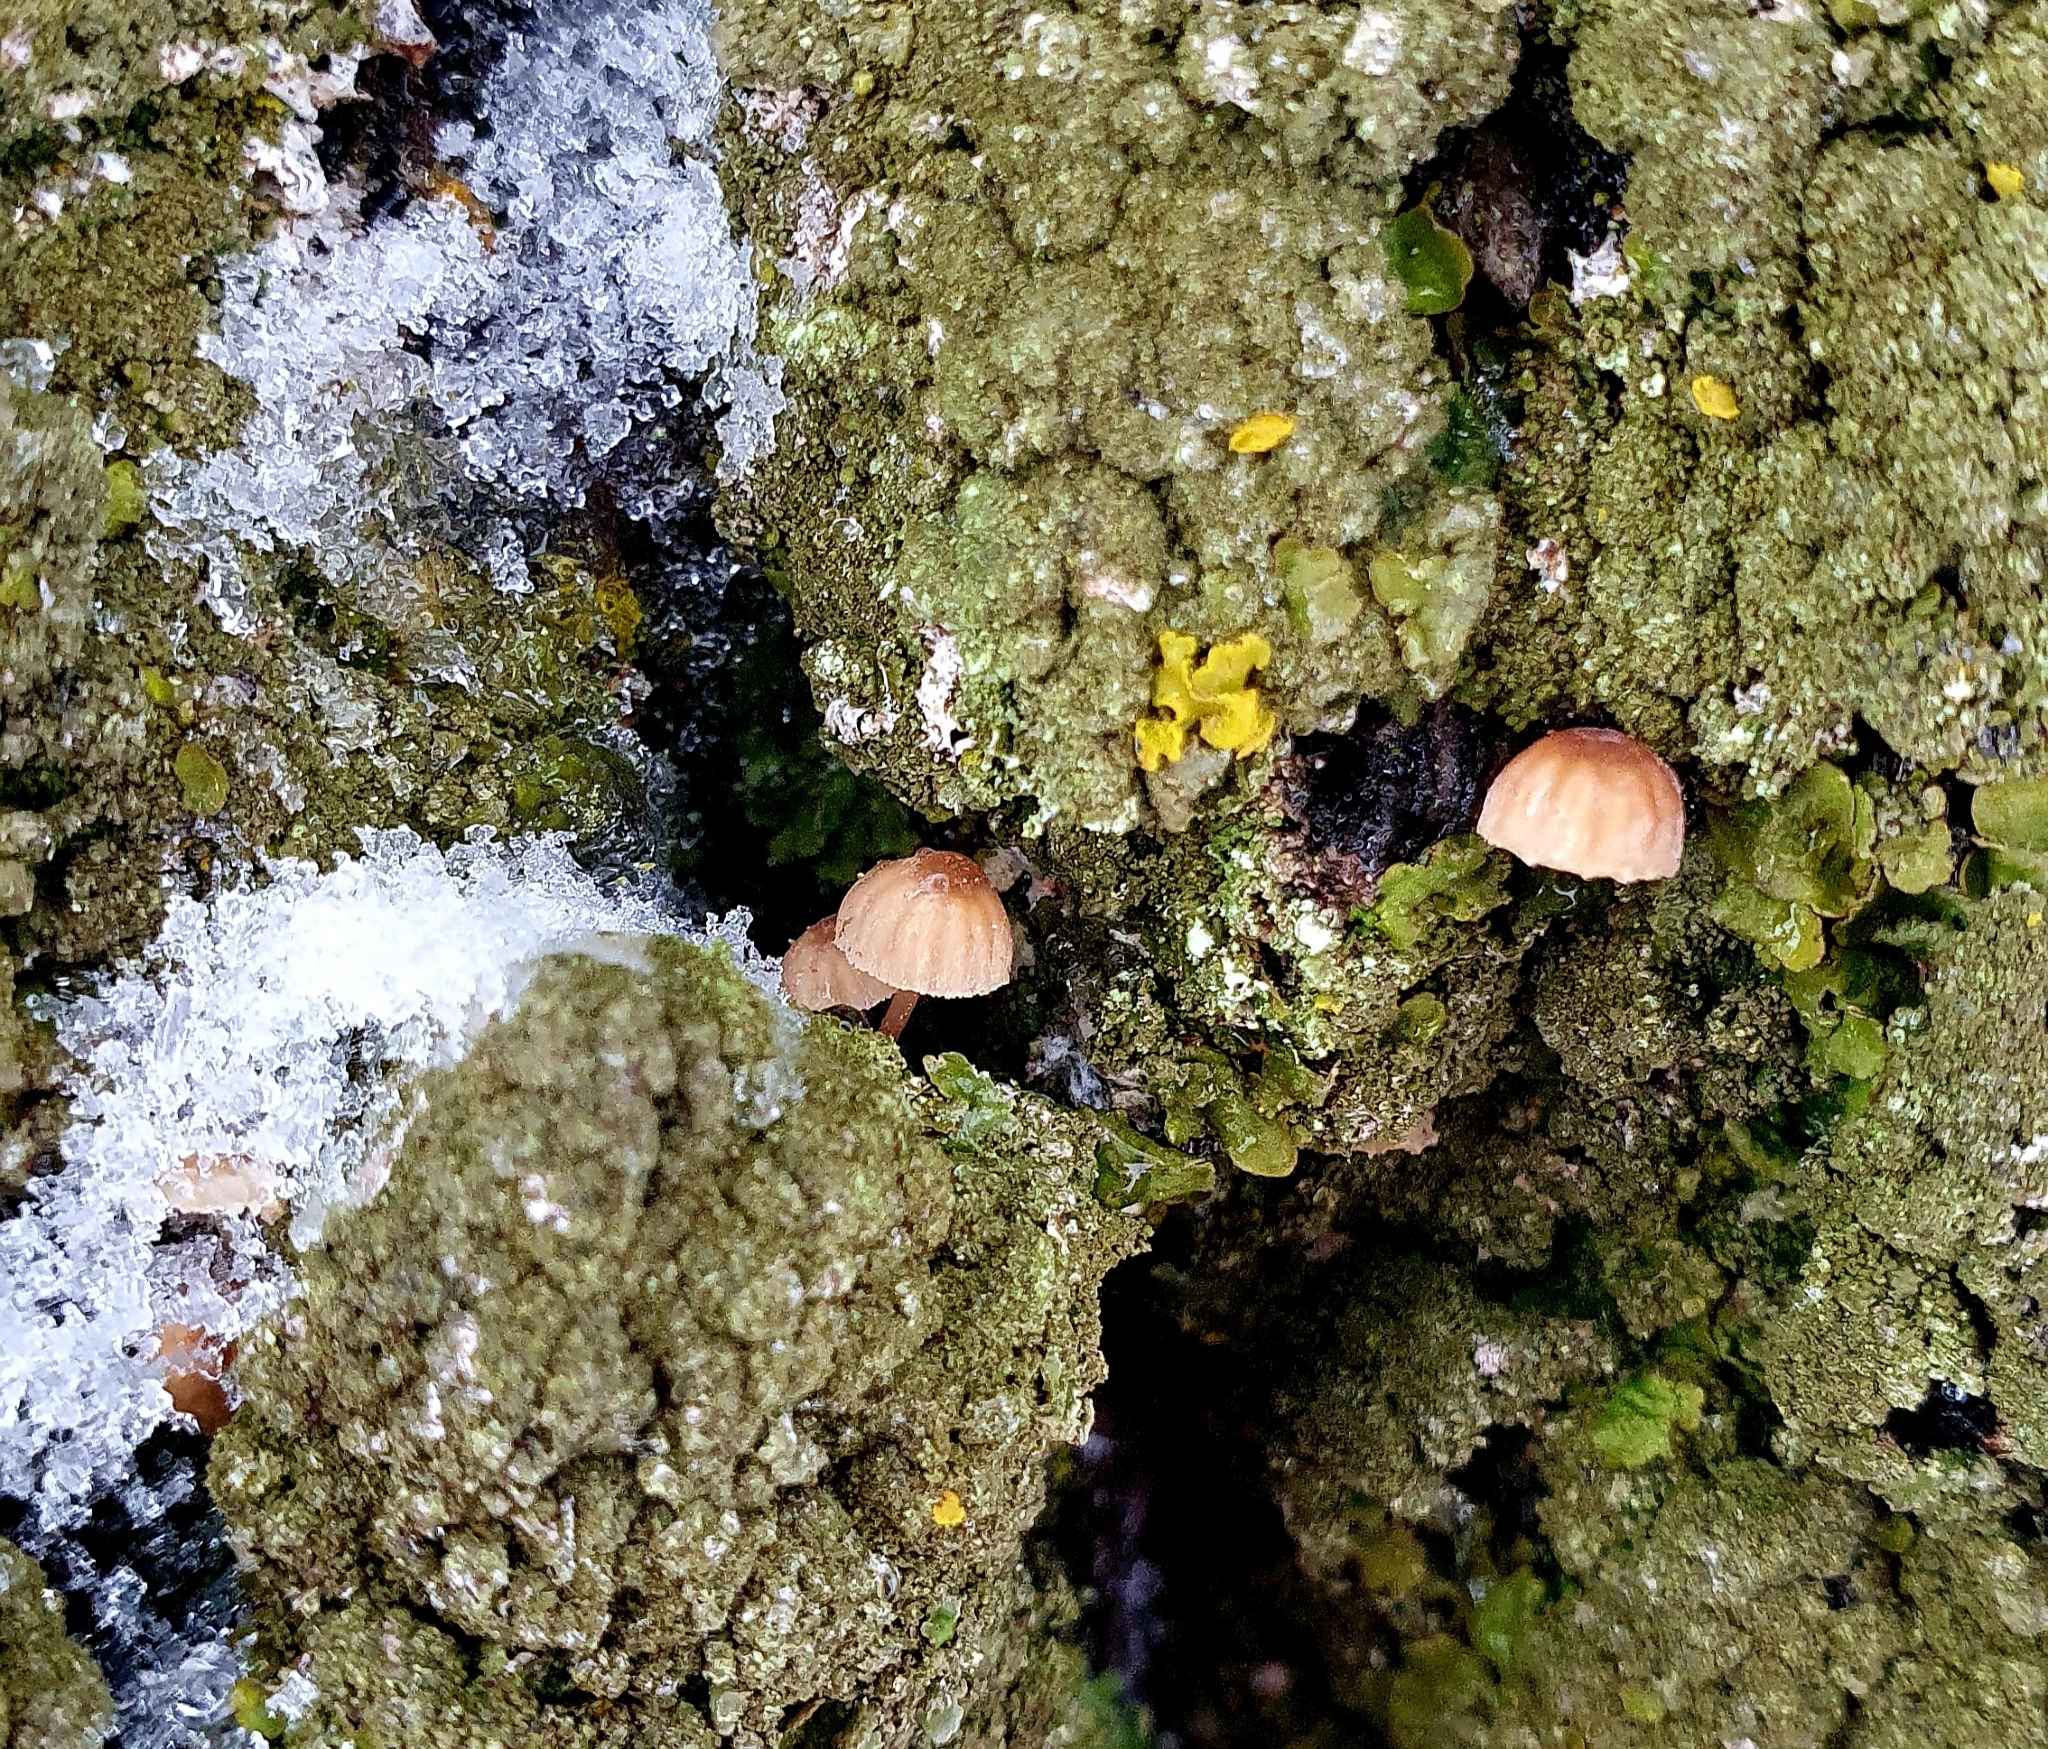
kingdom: Fungi
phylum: Basidiomycota
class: Agaricomycetes
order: Agaricales
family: Mycenaceae
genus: Mycena
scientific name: Mycena meliigena
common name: Mauve bonnet
